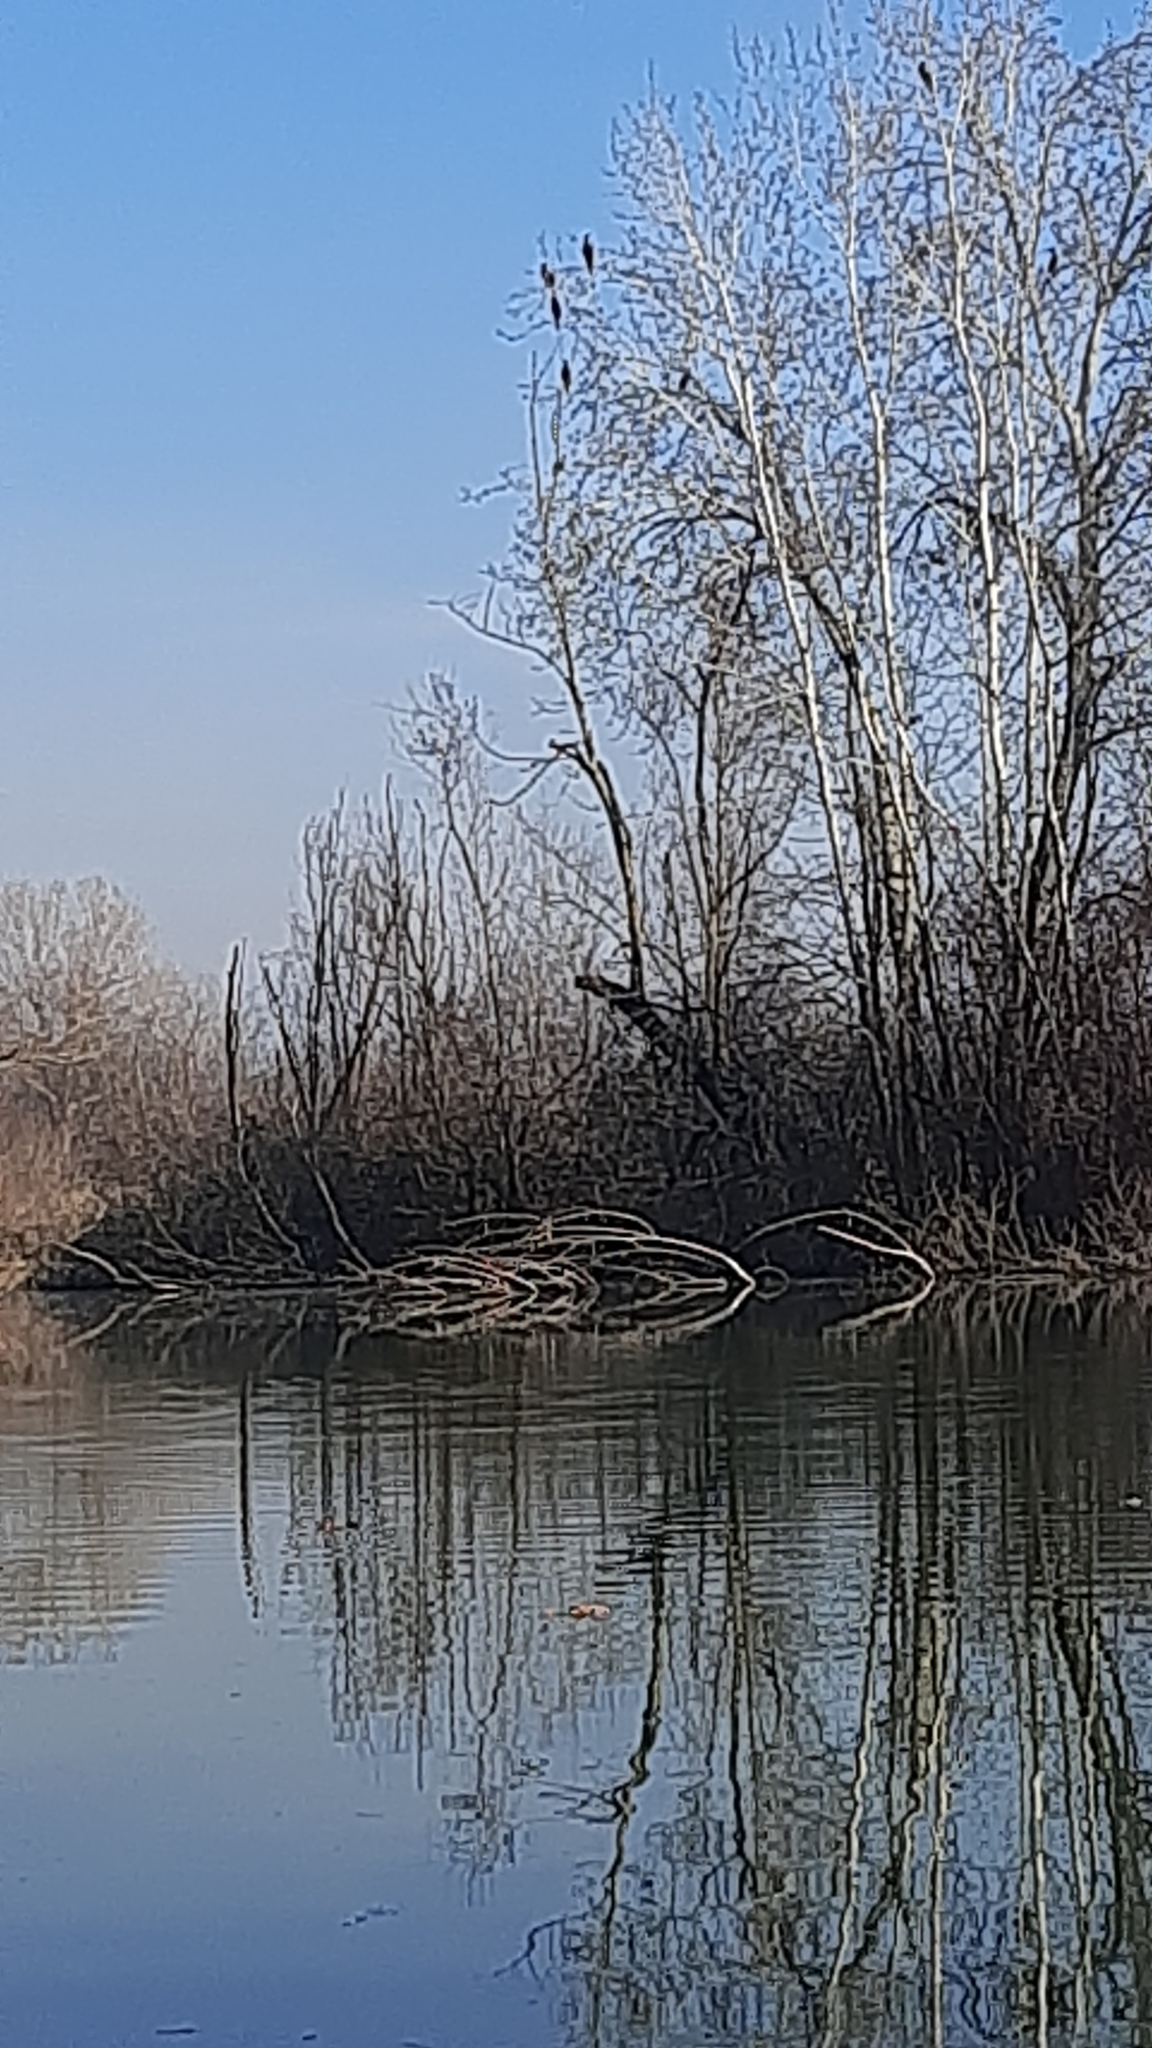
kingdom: Animalia
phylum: Chordata
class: Aves
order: Suliformes
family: Phalacrocoracidae
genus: Phalacrocorax
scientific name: Phalacrocorax carbo
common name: Great cormorant
